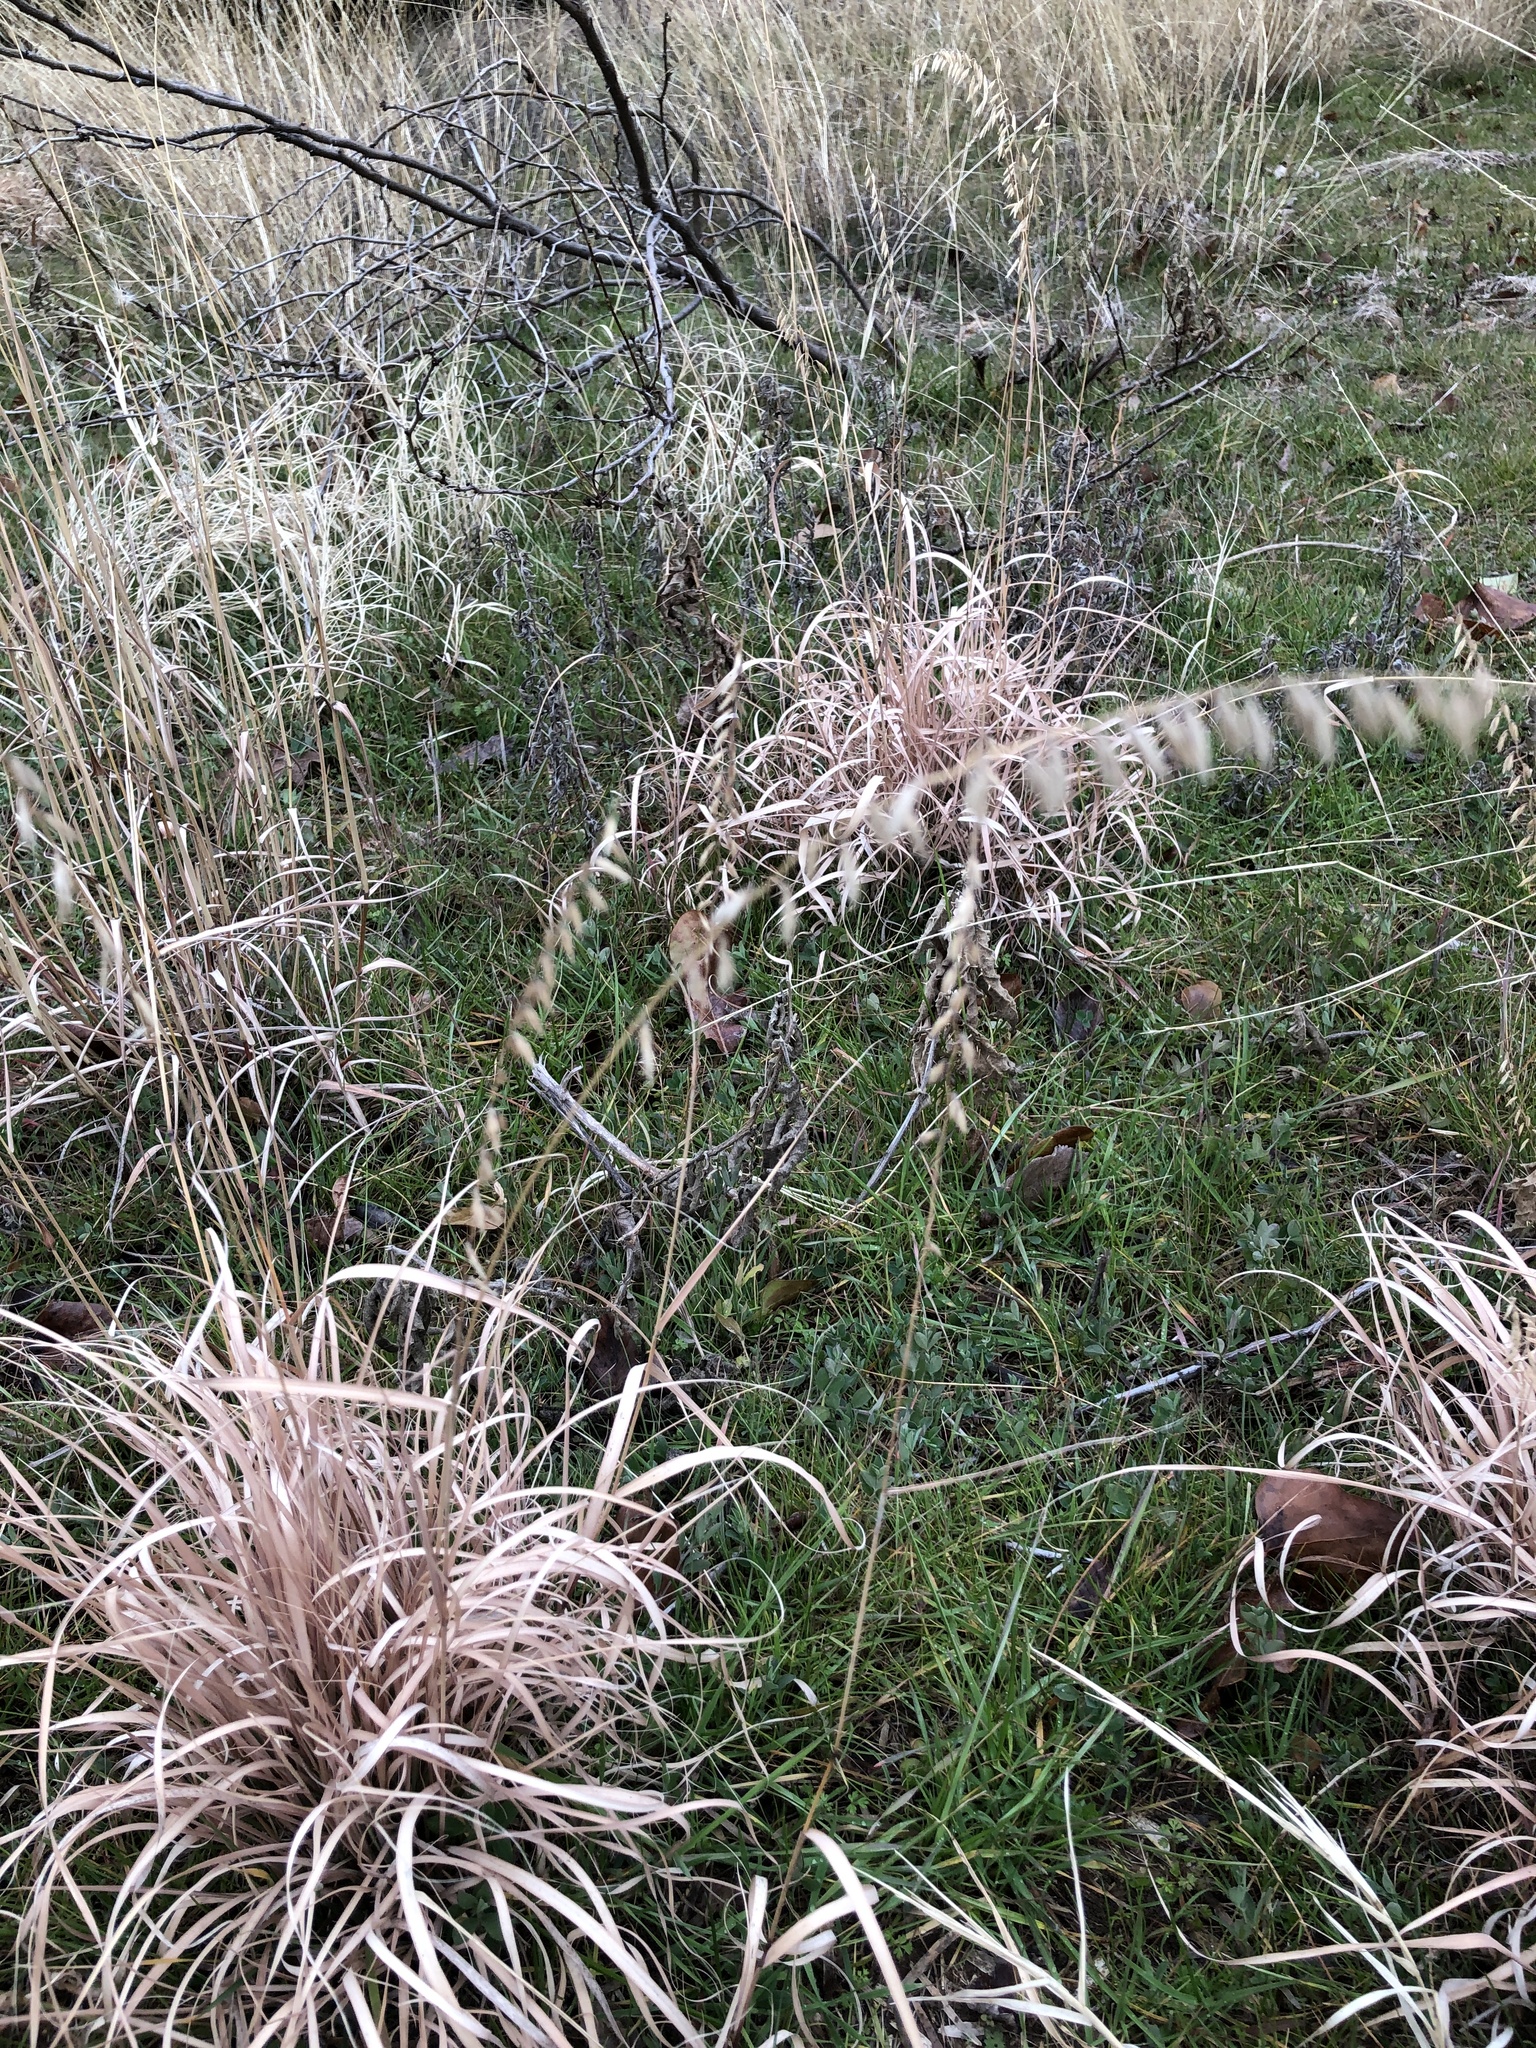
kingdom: Plantae
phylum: Tracheophyta
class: Liliopsida
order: Poales
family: Poaceae
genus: Bouteloua
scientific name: Bouteloua curtipendula
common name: Side-oats grama
